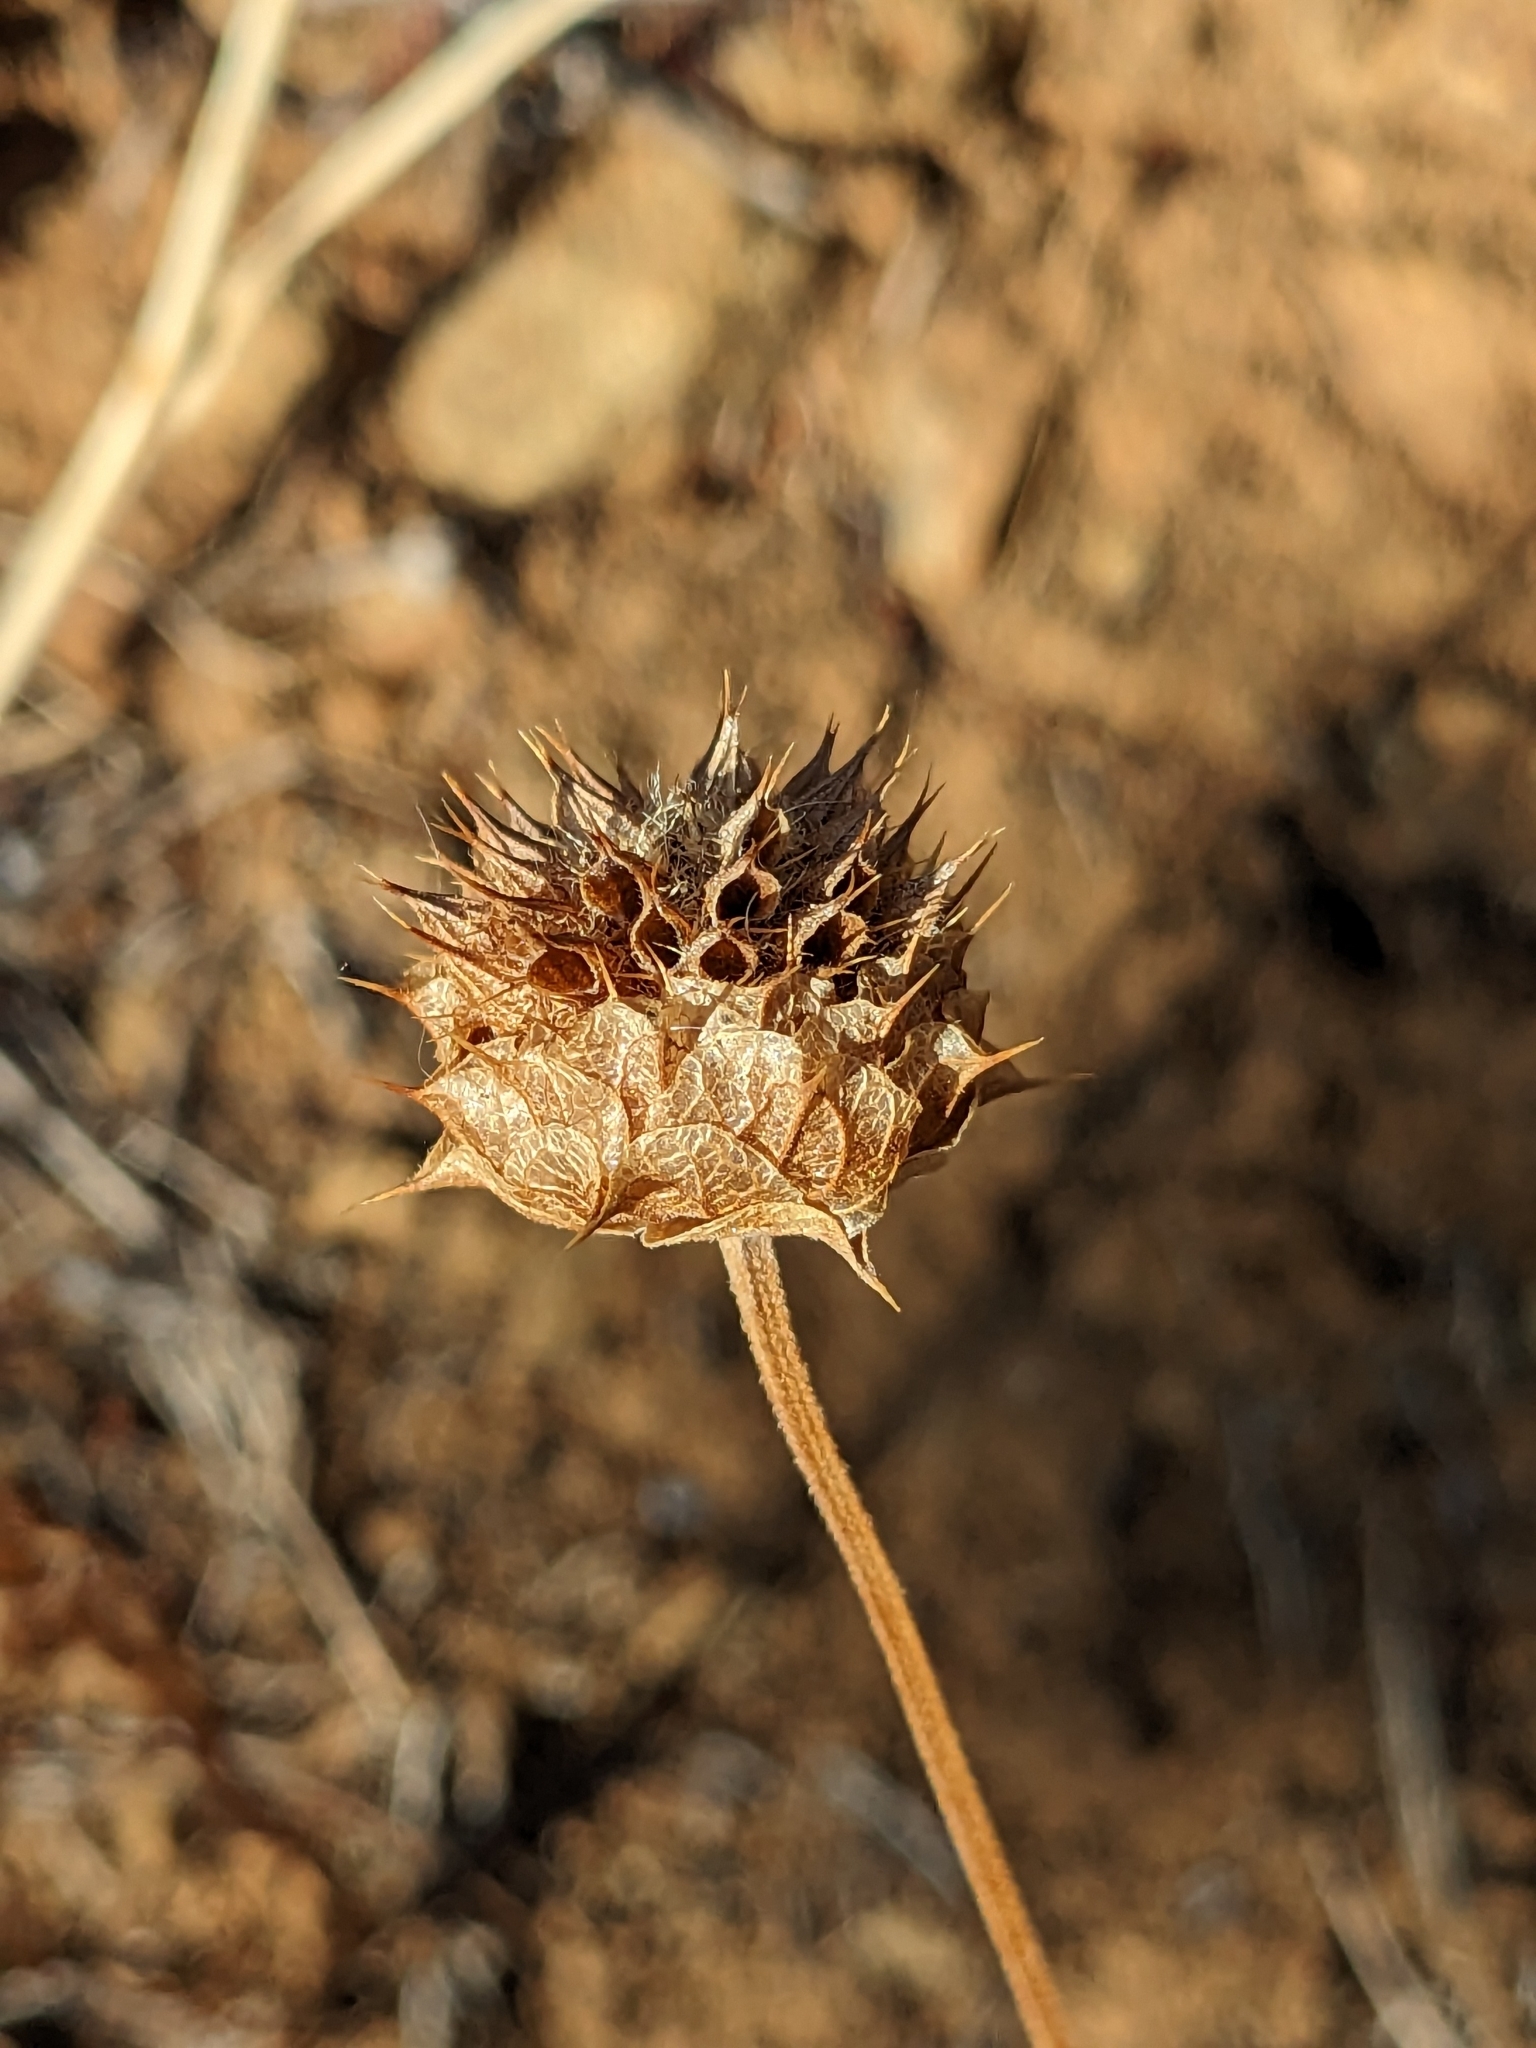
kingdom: Plantae
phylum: Tracheophyta
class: Magnoliopsida
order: Lamiales
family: Lamiaceae
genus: Salvia
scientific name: Salvia columbariae
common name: Chia
